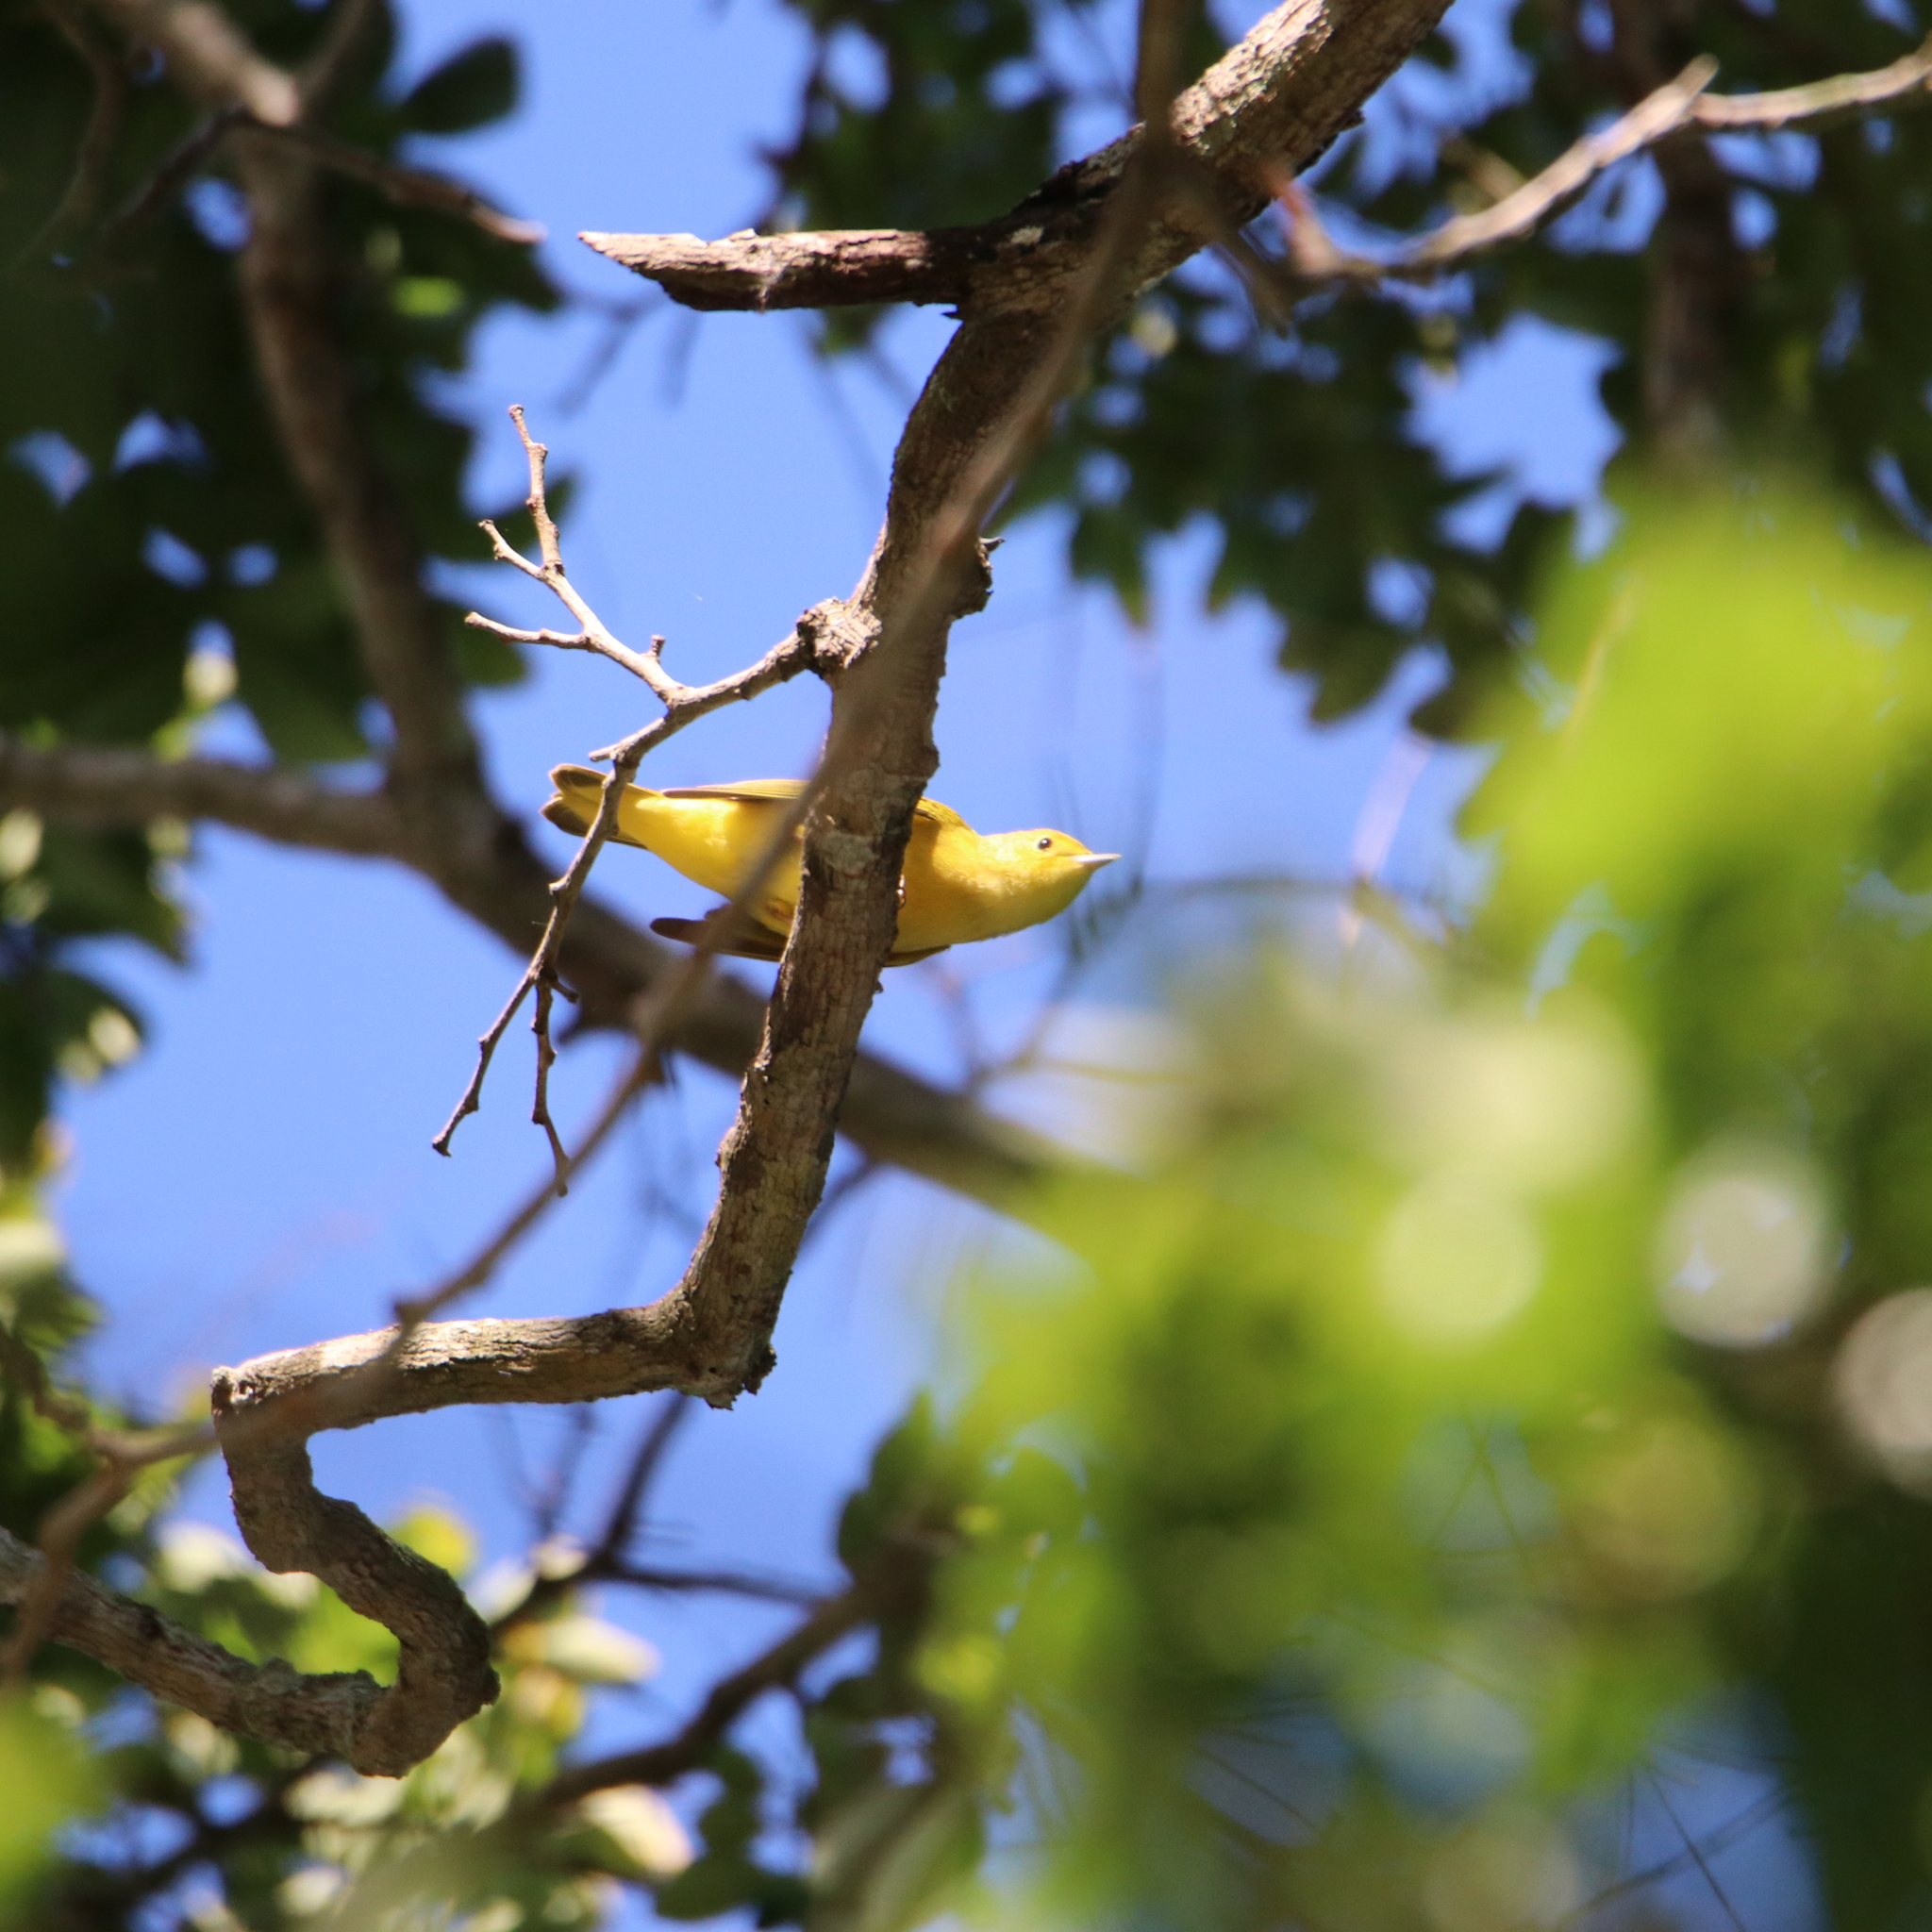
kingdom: Animalia
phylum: Chordata
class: Aves
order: Passeriformes
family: Parulidae
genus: Setophaga
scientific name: Setophaga petechia
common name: Yellow warbler
